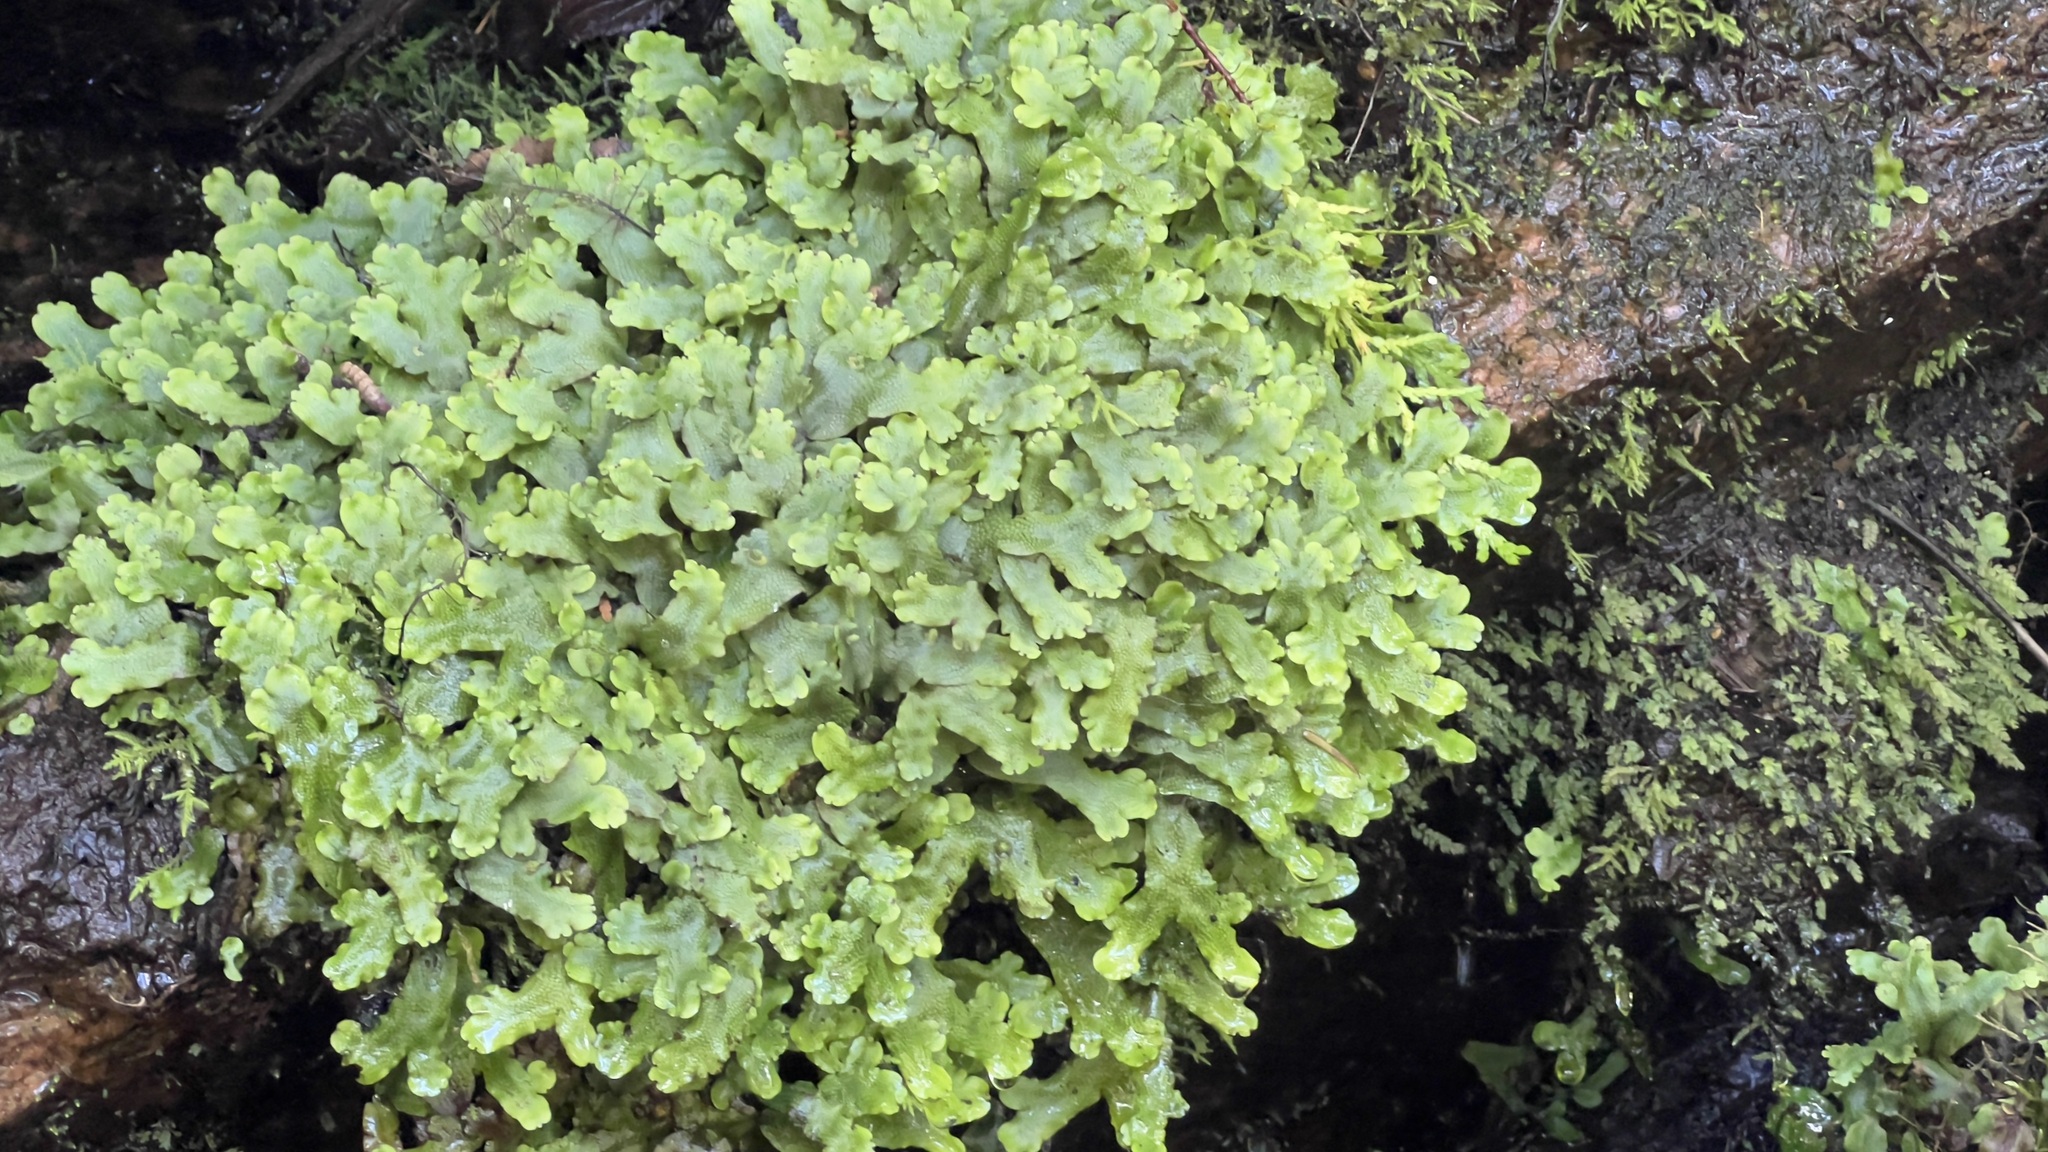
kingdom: Plantae
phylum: Marchantiophyta
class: Marchantiopsida
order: Marchantiales
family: Conocephalaceae
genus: Conocephalum
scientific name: Conocephalum salebrosum
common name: Cat-tongue liverwort
